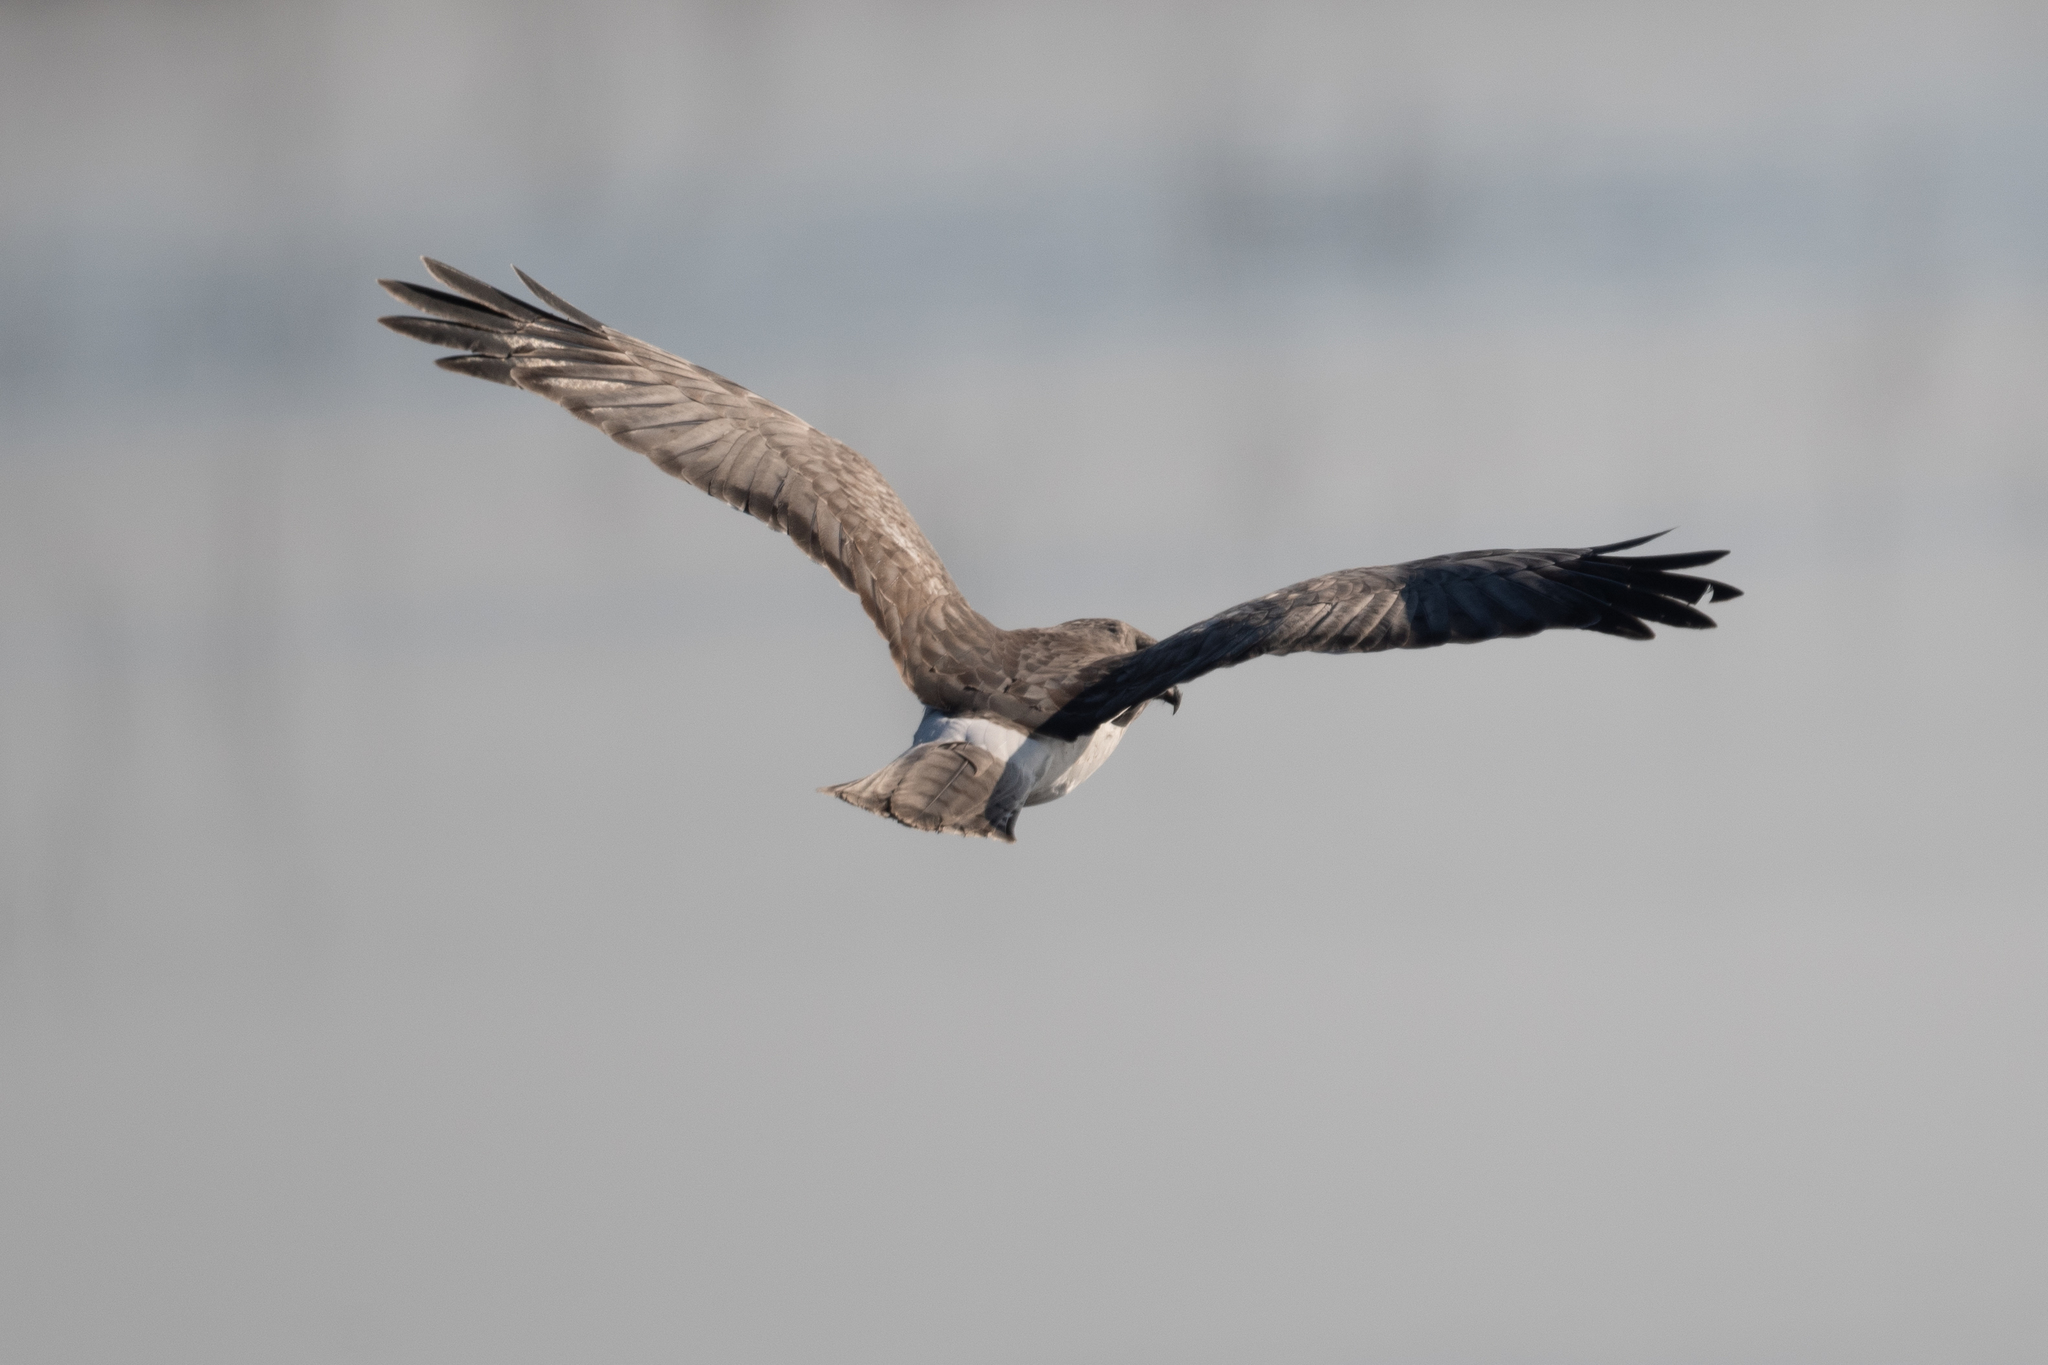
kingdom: Animalia
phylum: Chordata
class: Aves
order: Accipitriformes
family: Accipitridae
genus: Circus
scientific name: Circus cyaneus
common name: Hen harrier
